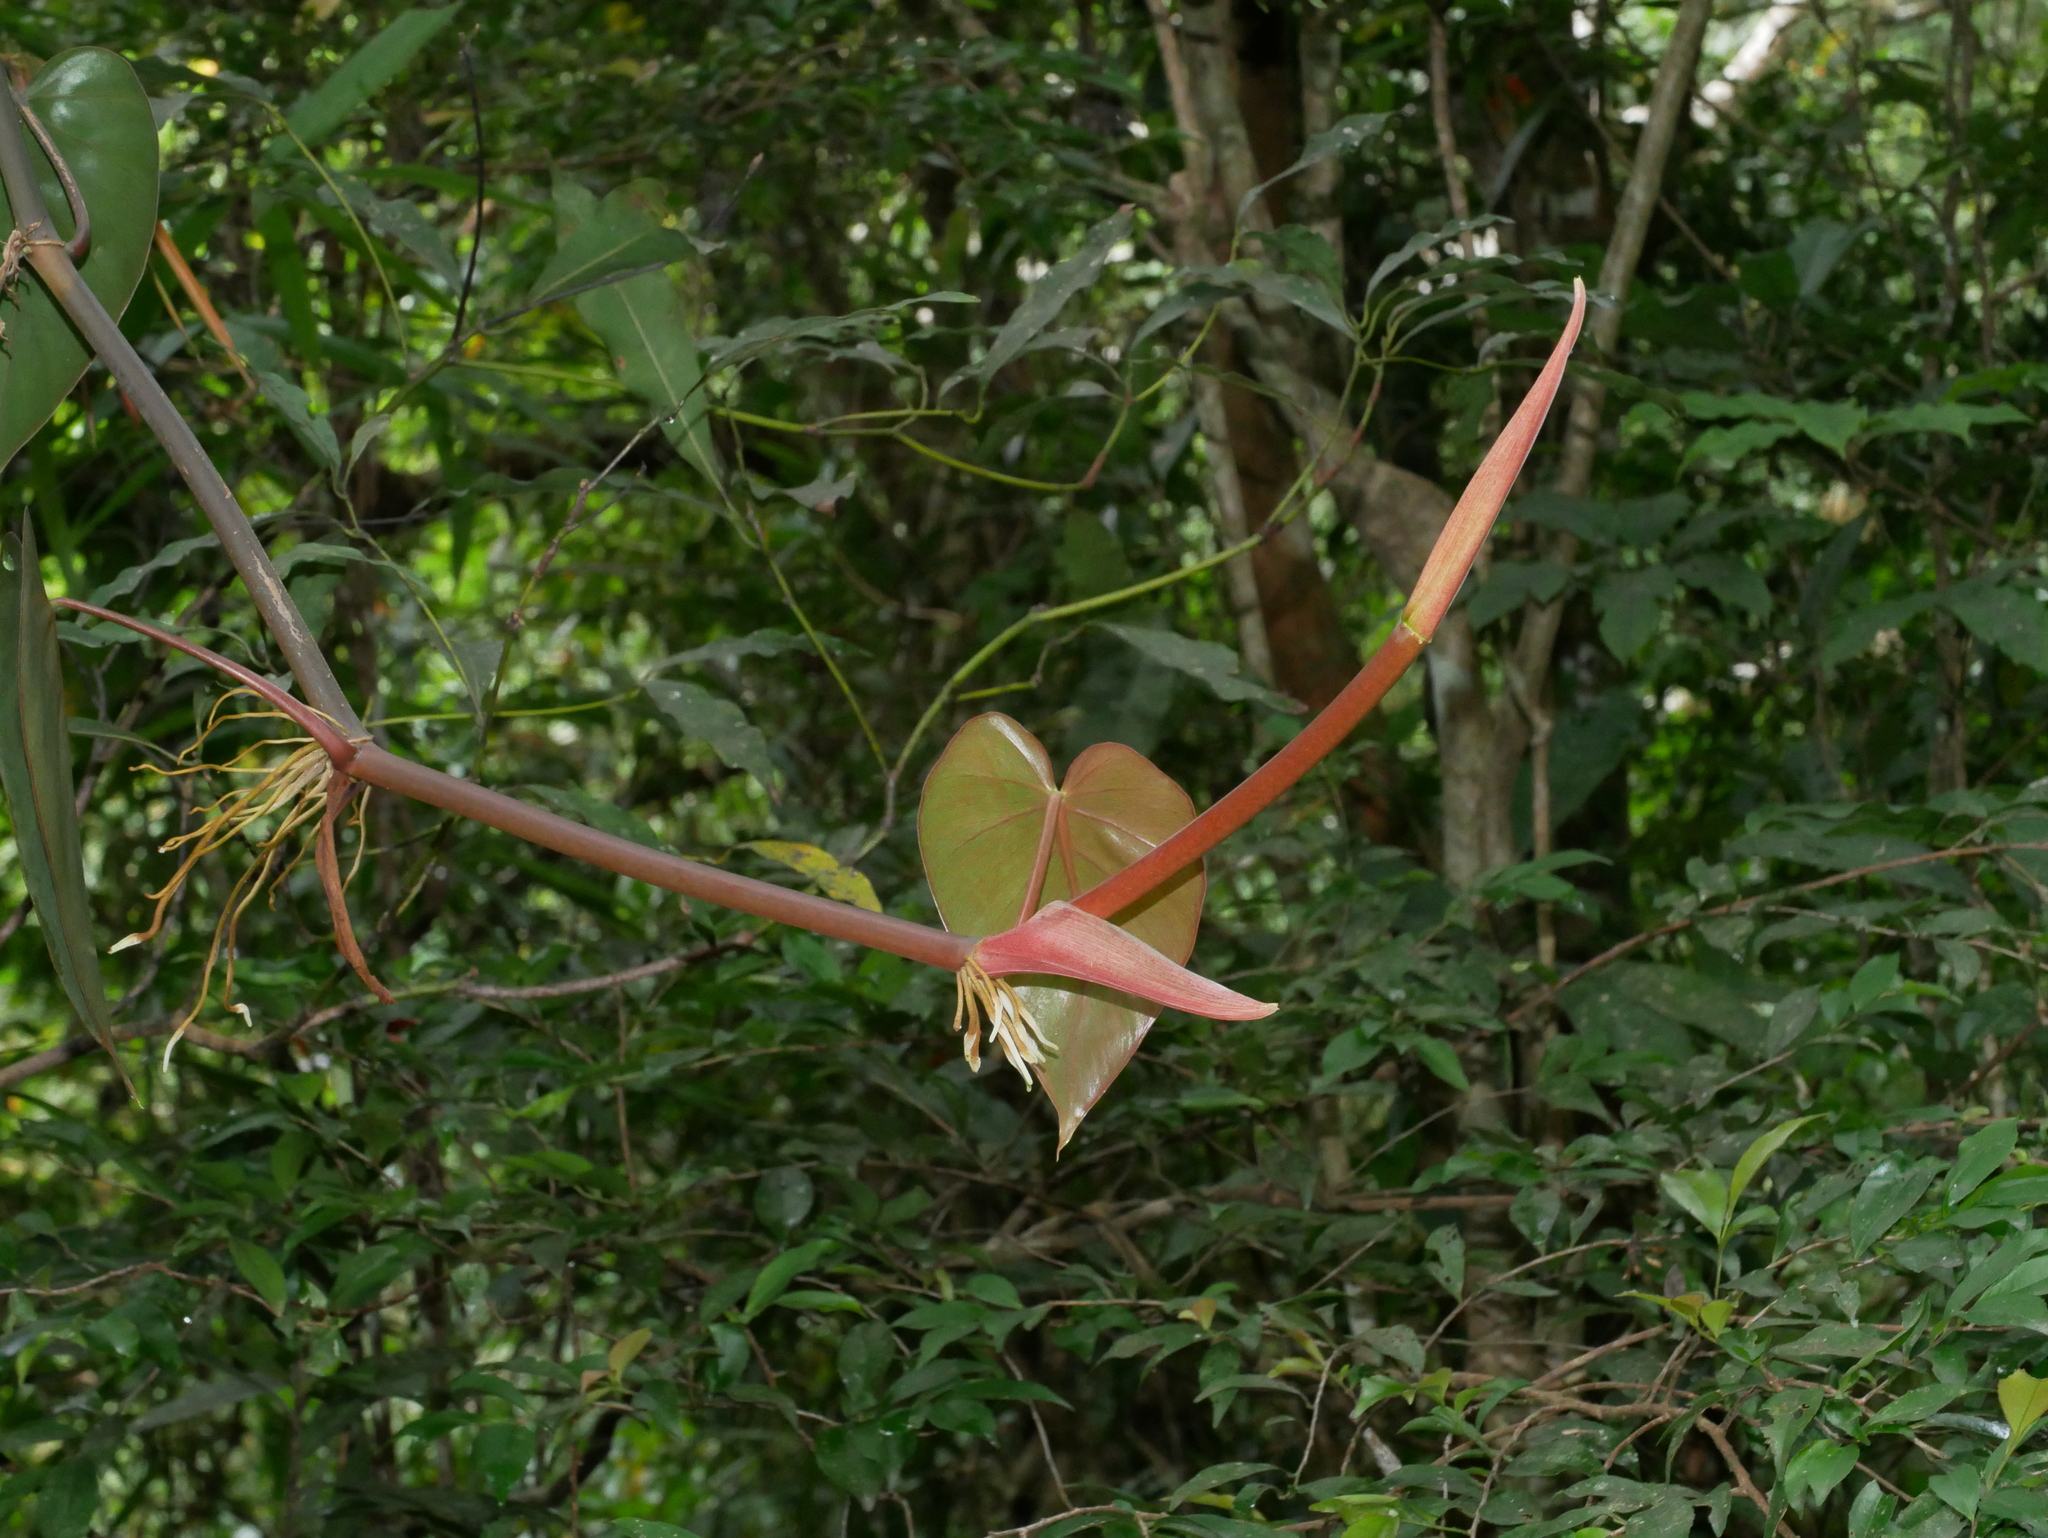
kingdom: Plantae
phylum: Tracheophyta
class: Liliopsida
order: Alismatales
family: Araceae
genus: Philodendron
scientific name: Philodendron hederaceum
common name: Vilevine
